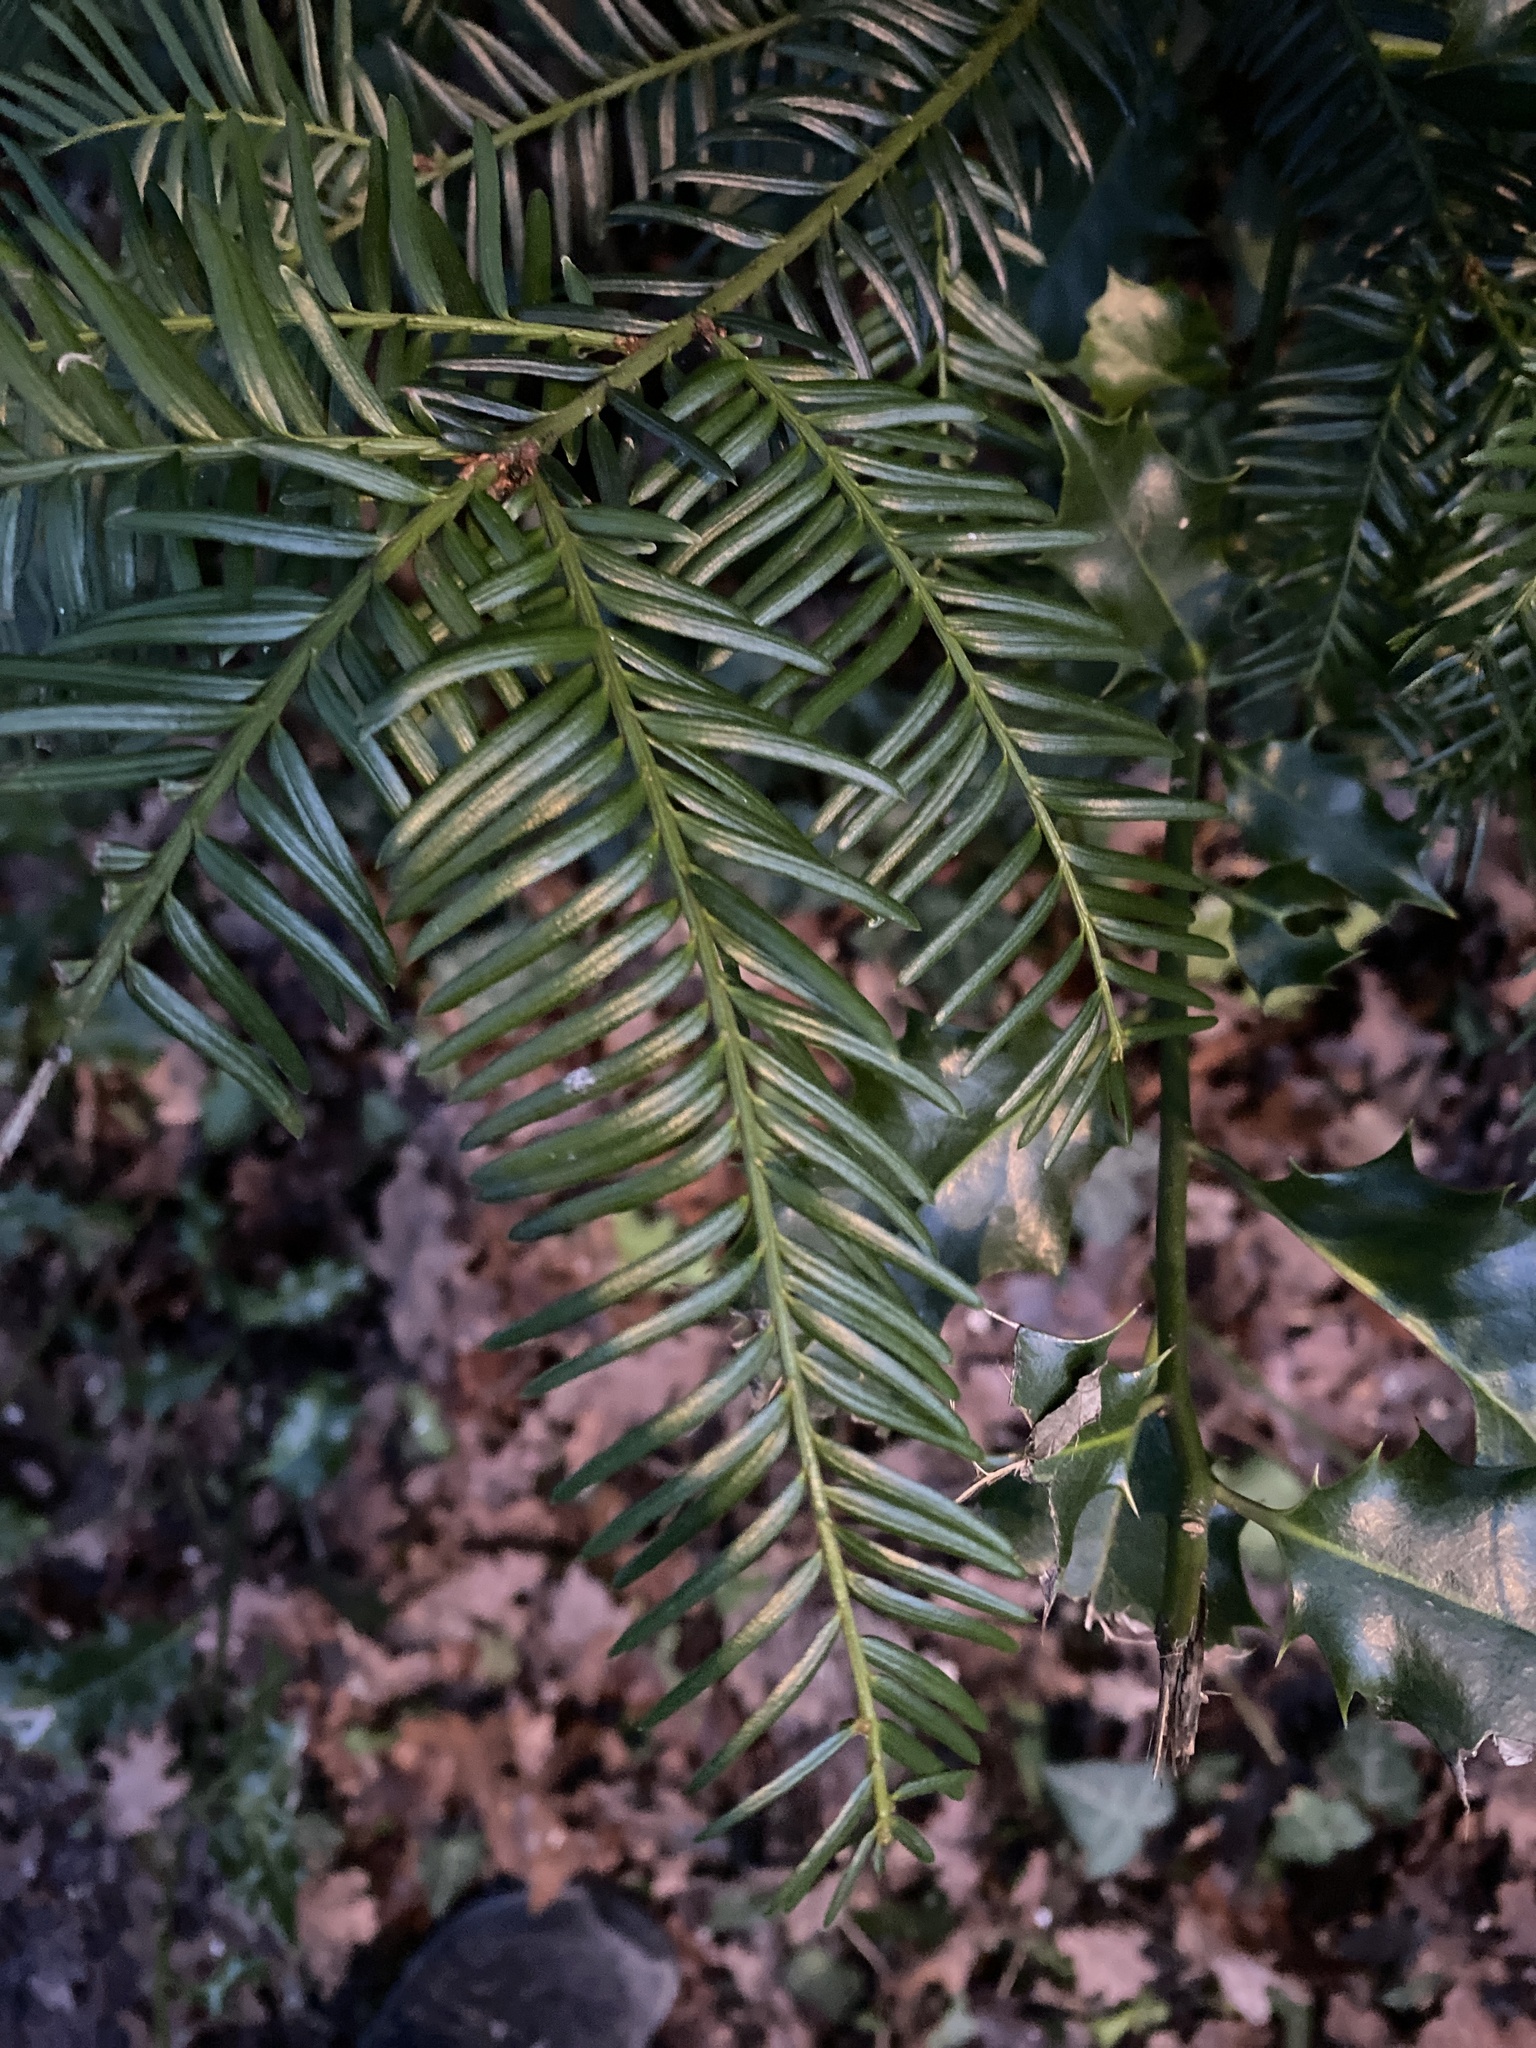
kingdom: Plantae
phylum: Tracheophyta
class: Pinopsida
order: Pinales
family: Taxaceae
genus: Taxus
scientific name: Taxus baccata
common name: Yew
